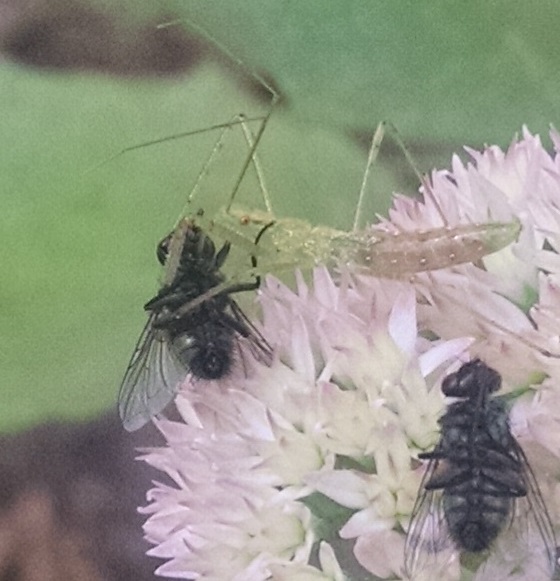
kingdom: Animalia
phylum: Arthropoda
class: Insecta
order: Hemiptera
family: Reduviidae
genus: Zelus
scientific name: Zelus luridus
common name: Pale green assassin bug
